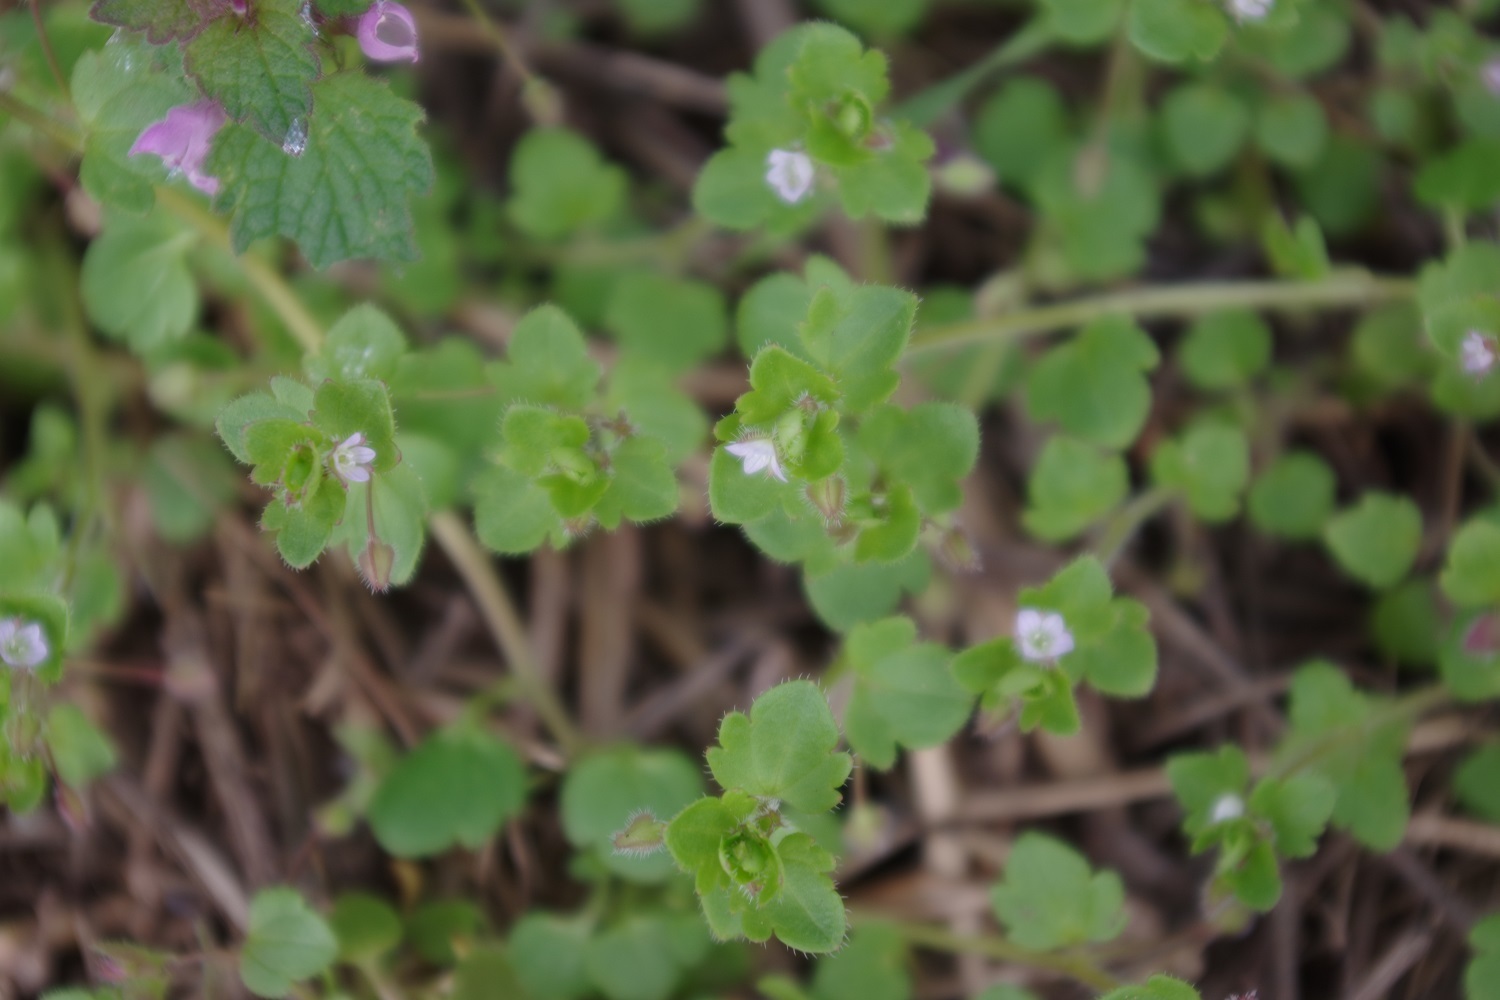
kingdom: Plantae
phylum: Tracheophyta
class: Magnoliopsida
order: Lamiales
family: Plantaginaceae
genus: Veronica
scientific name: Veronica sublobata
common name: False ivy-leaved speedwell
